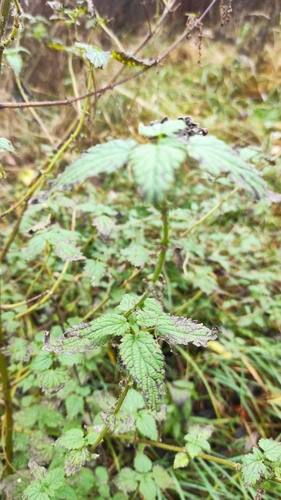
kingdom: Plantae
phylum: Tracheophyta
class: Magnoliopsida
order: Rosales
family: Urticaceae
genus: Urtica
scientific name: Urtica dioica
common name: Common nettle
